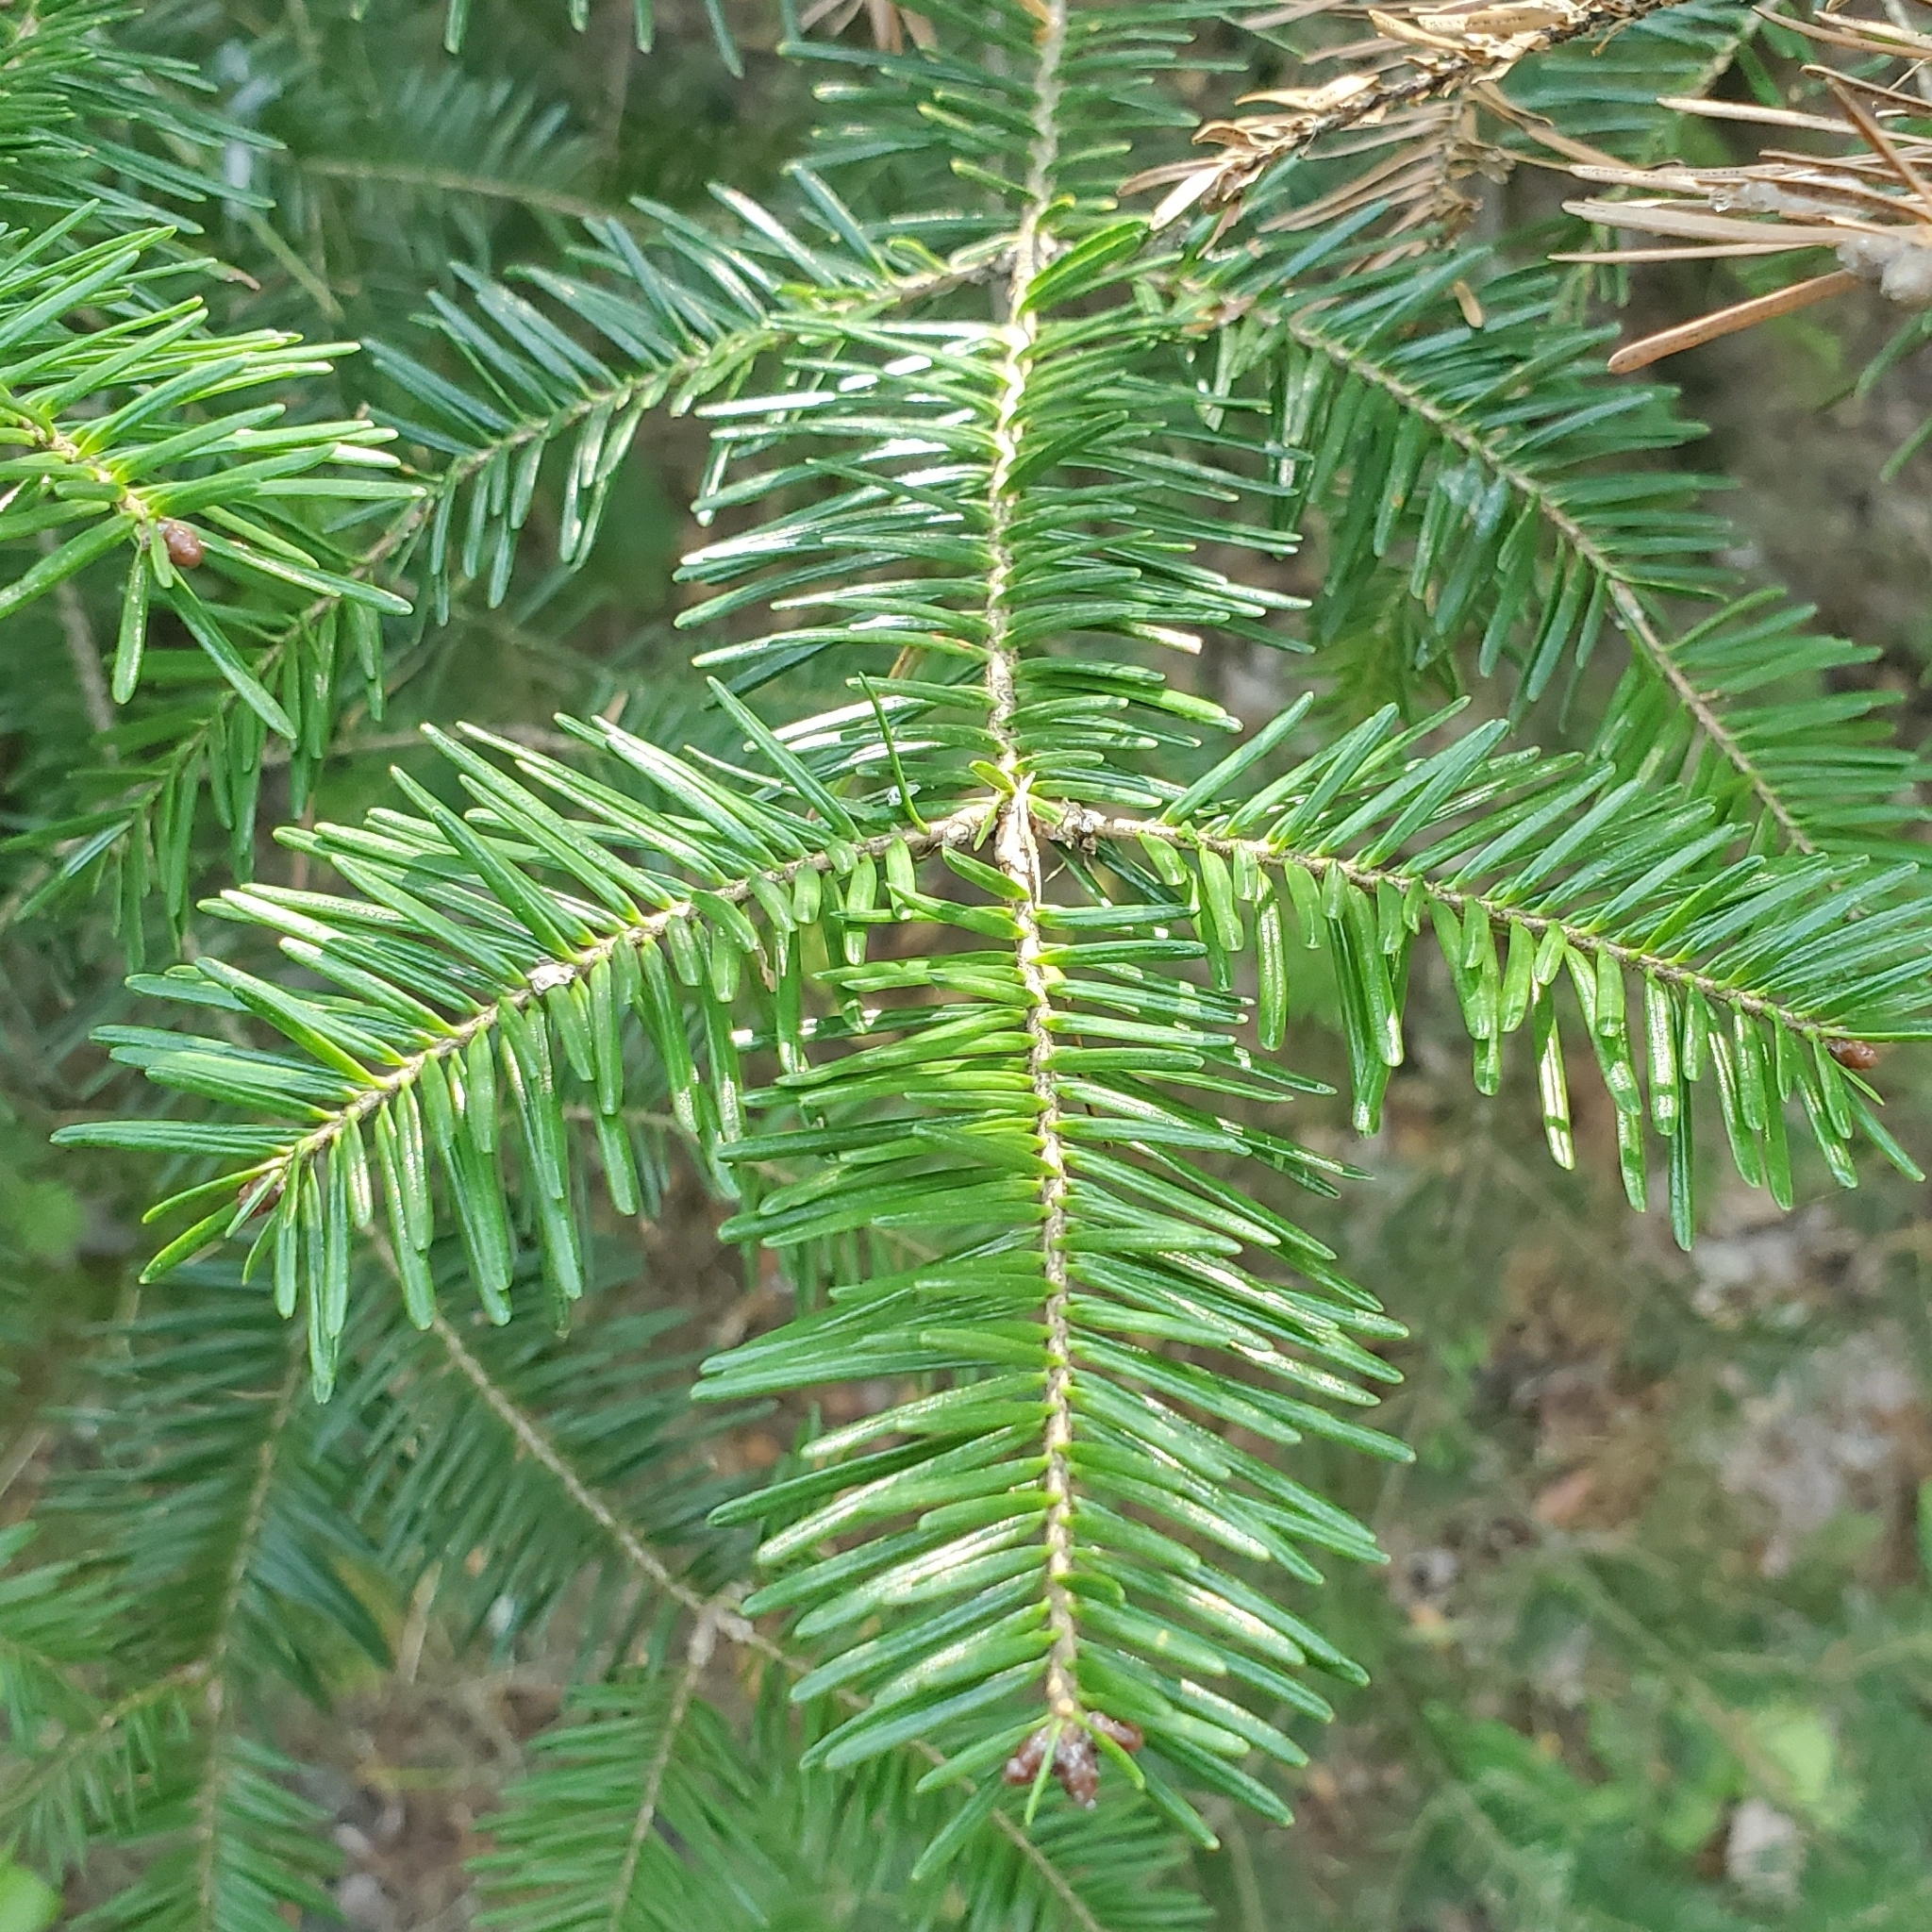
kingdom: Plantae
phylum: Tracheophyta
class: Pinopsida
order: Pinales
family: Pinaceae
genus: Abies
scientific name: Abies balsamea
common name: Balsam fir
